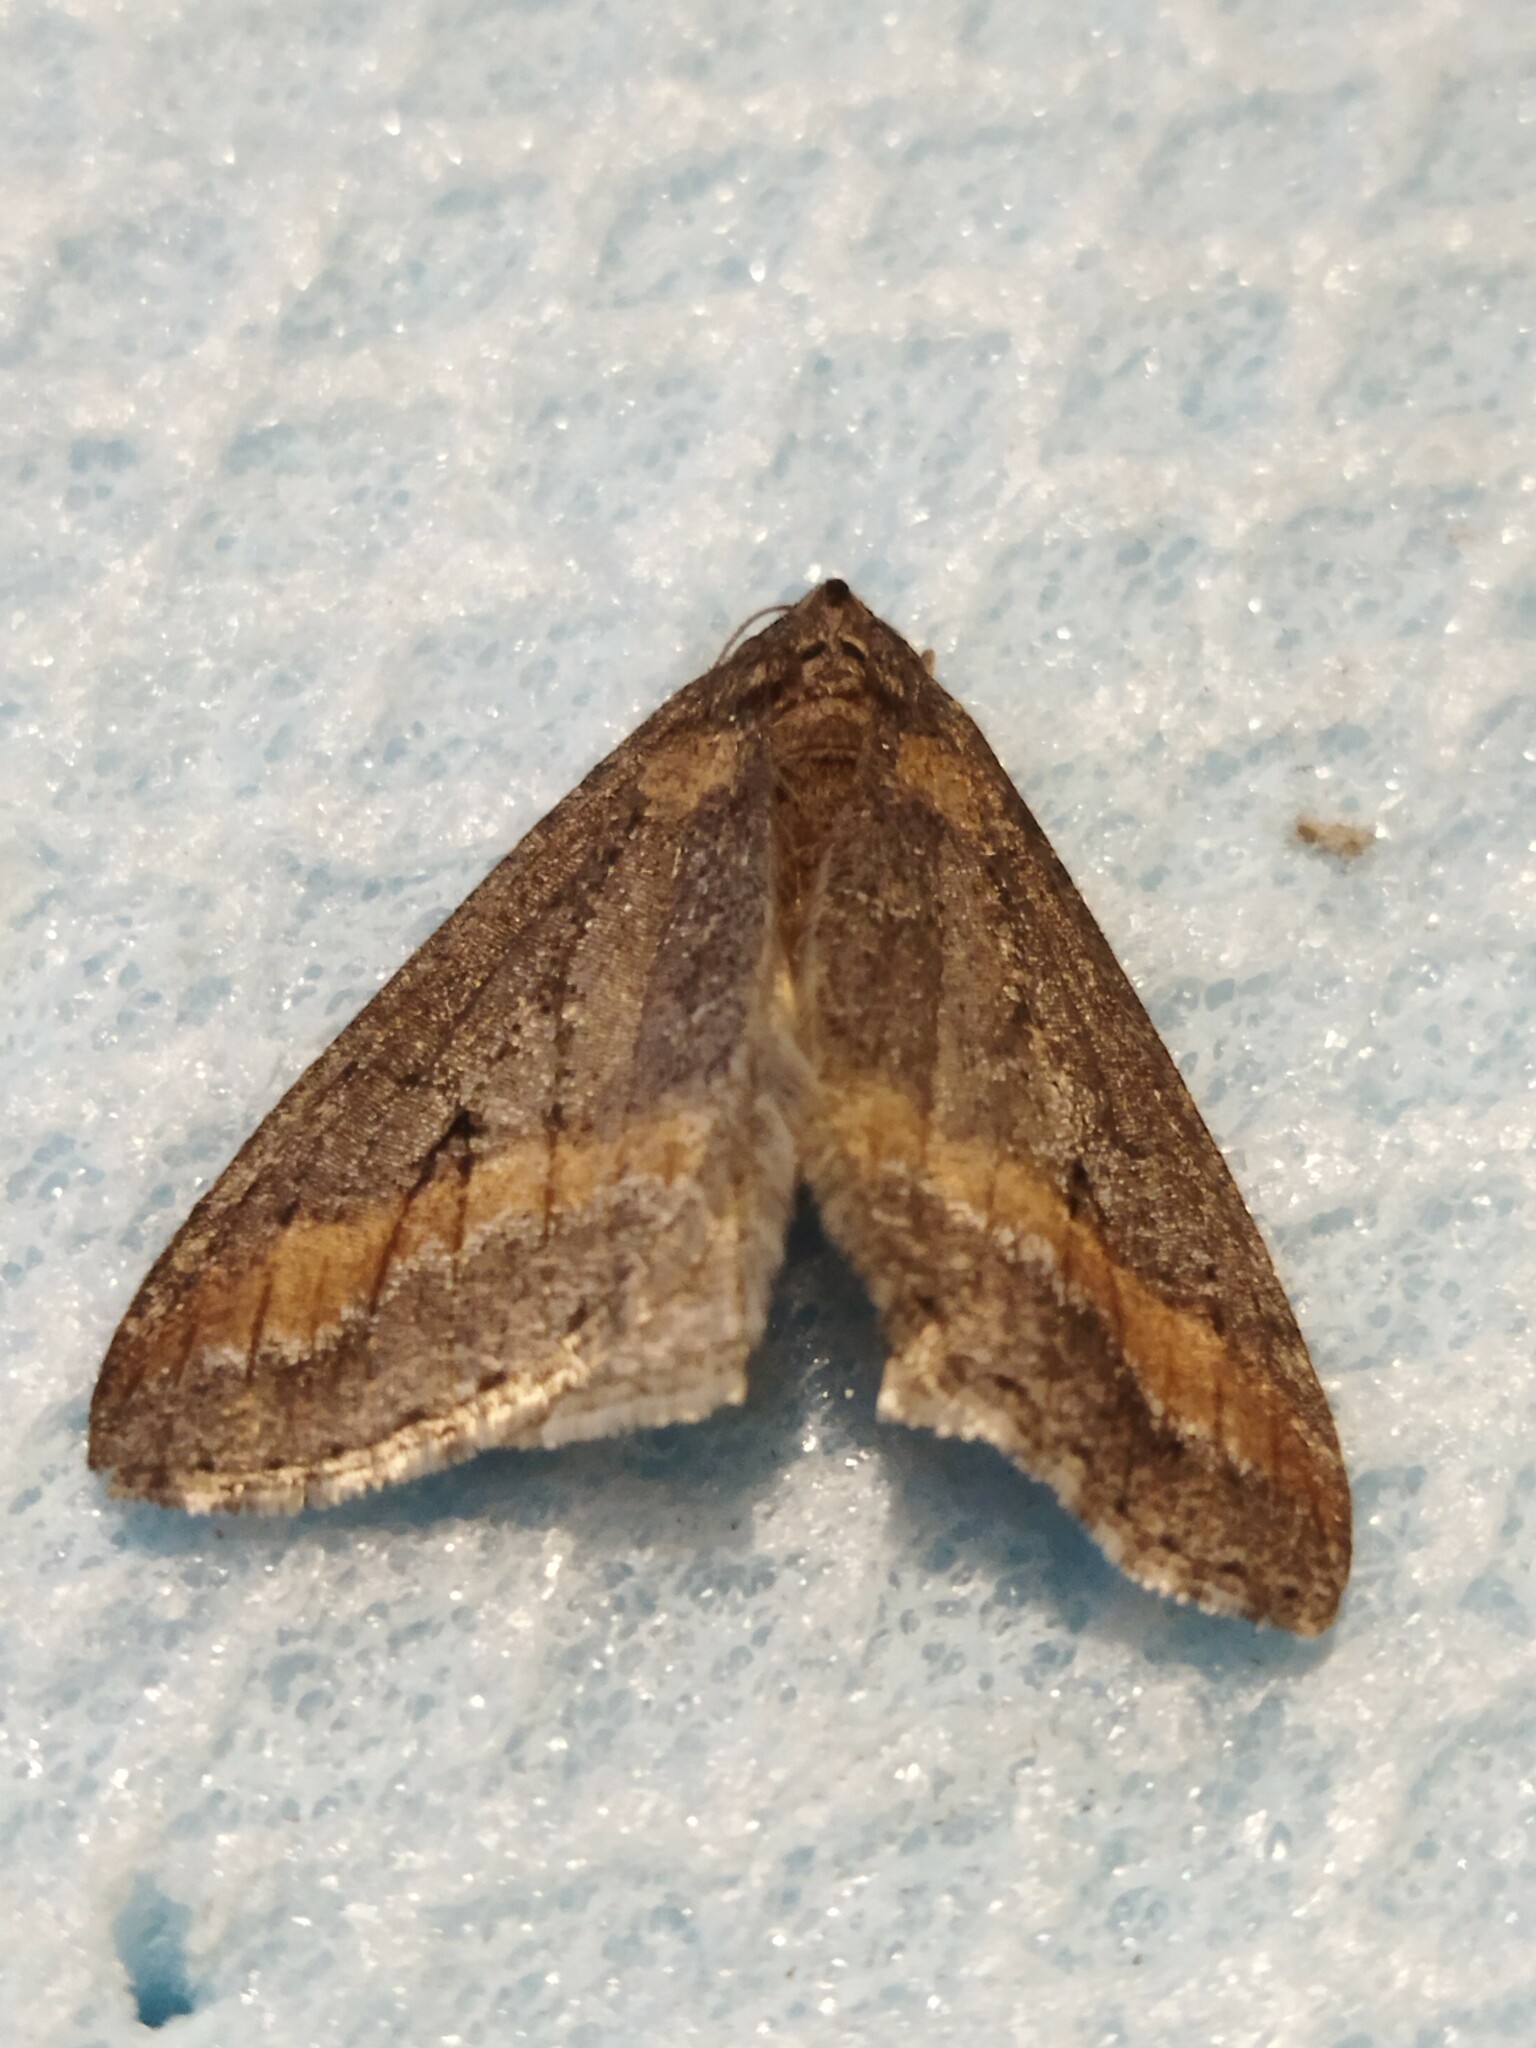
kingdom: Animalia
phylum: Arthropoda
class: Insecta
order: Lepidoptera
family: Geometridae
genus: Erannis
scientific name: Erannis declinans
